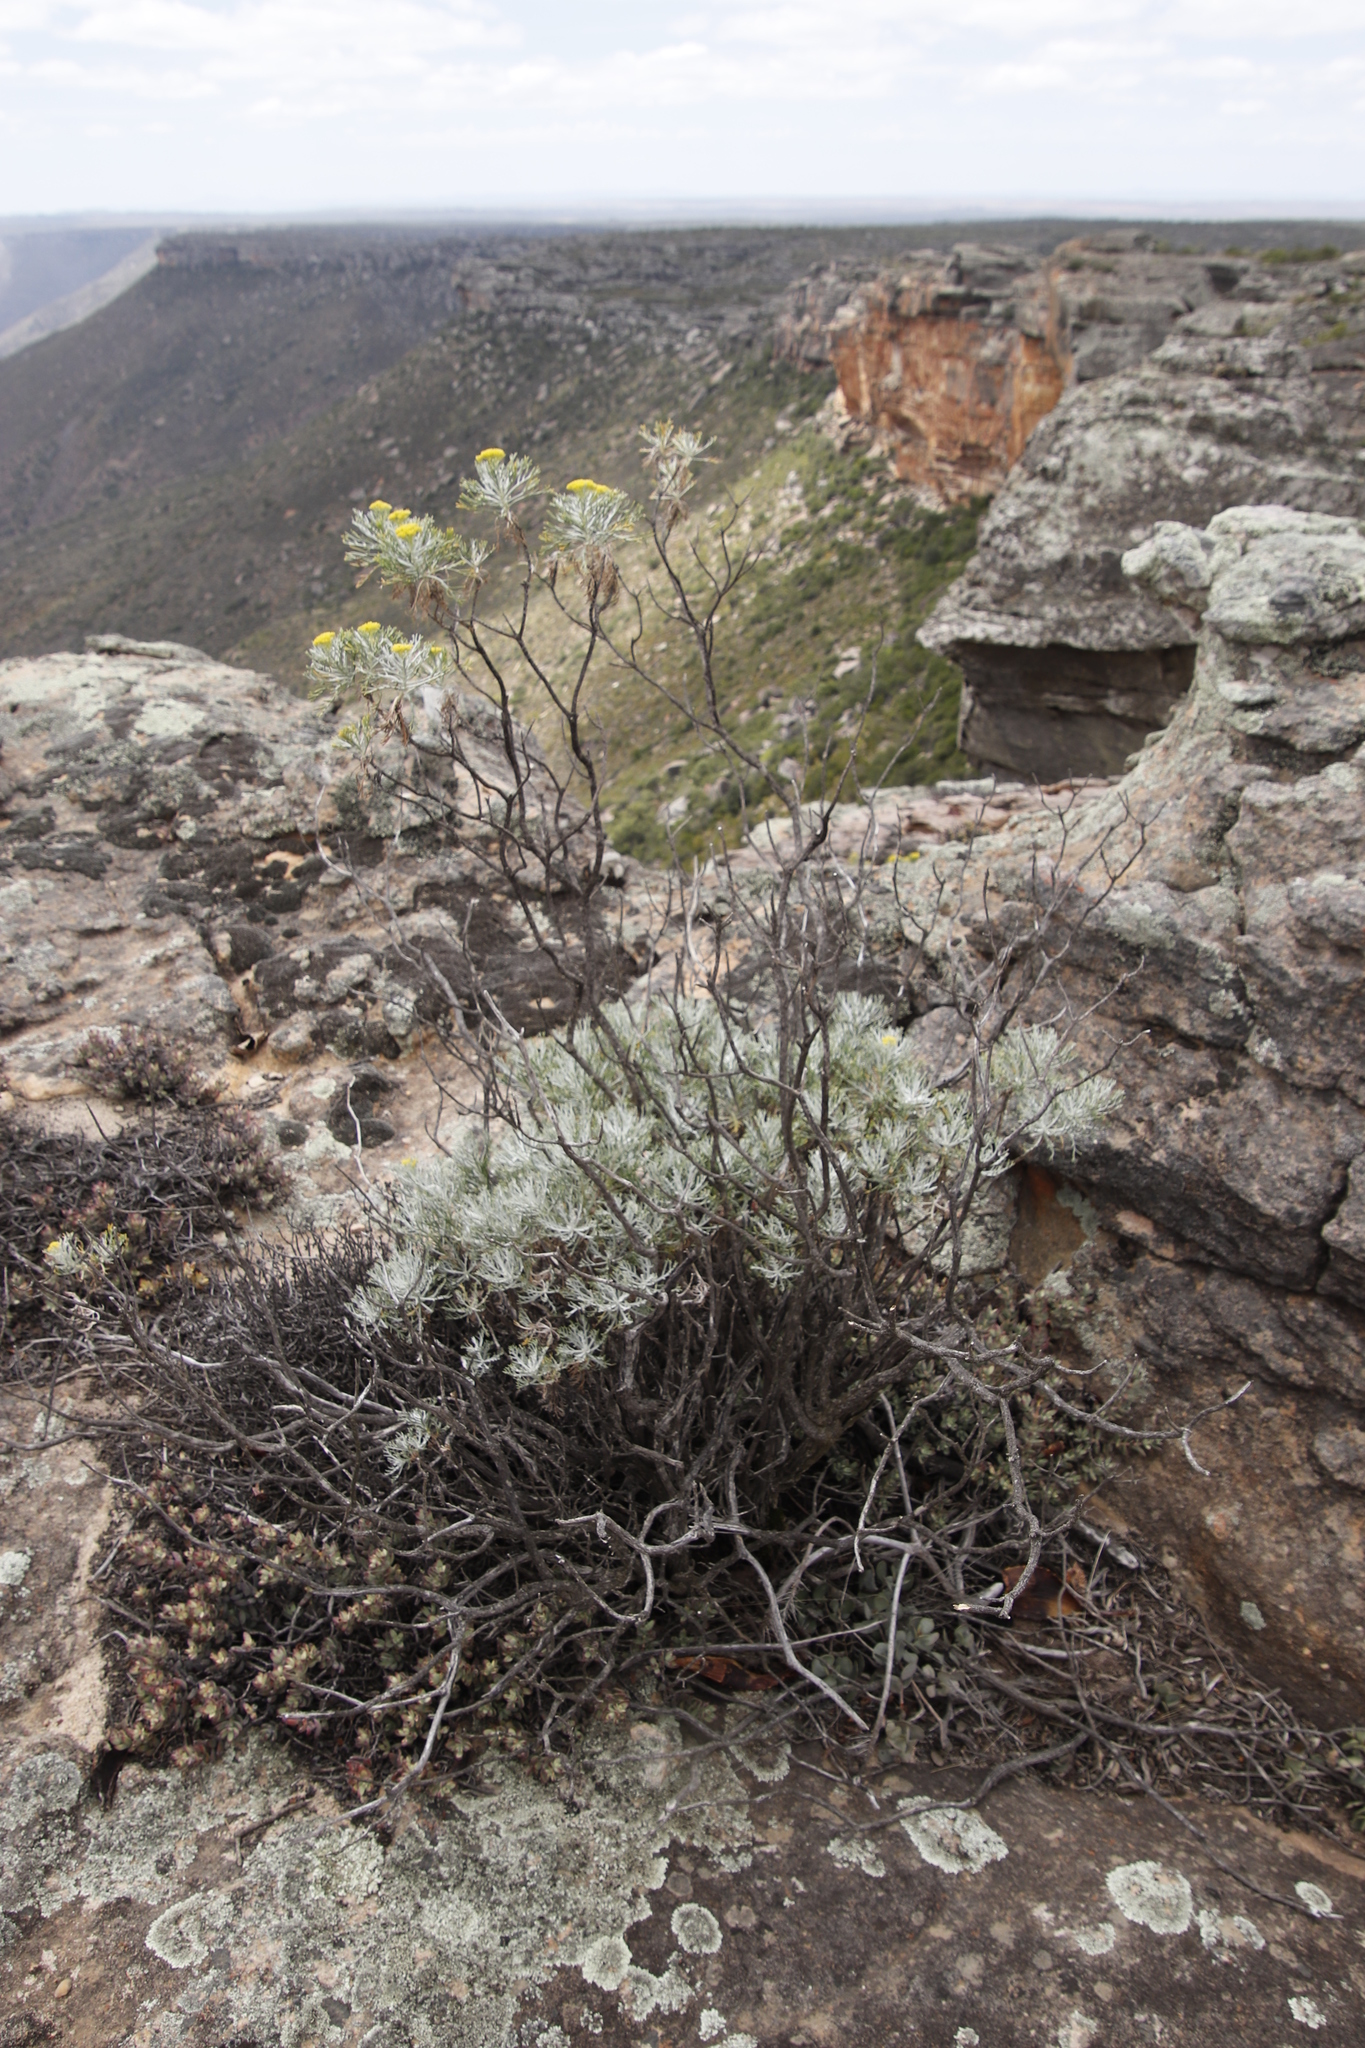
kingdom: Plantae
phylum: Tracheophyta
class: Magnoliopsida
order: Asterales
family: Asteraceae
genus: Hymenolepis
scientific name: Hymenolepis crithmifolia
